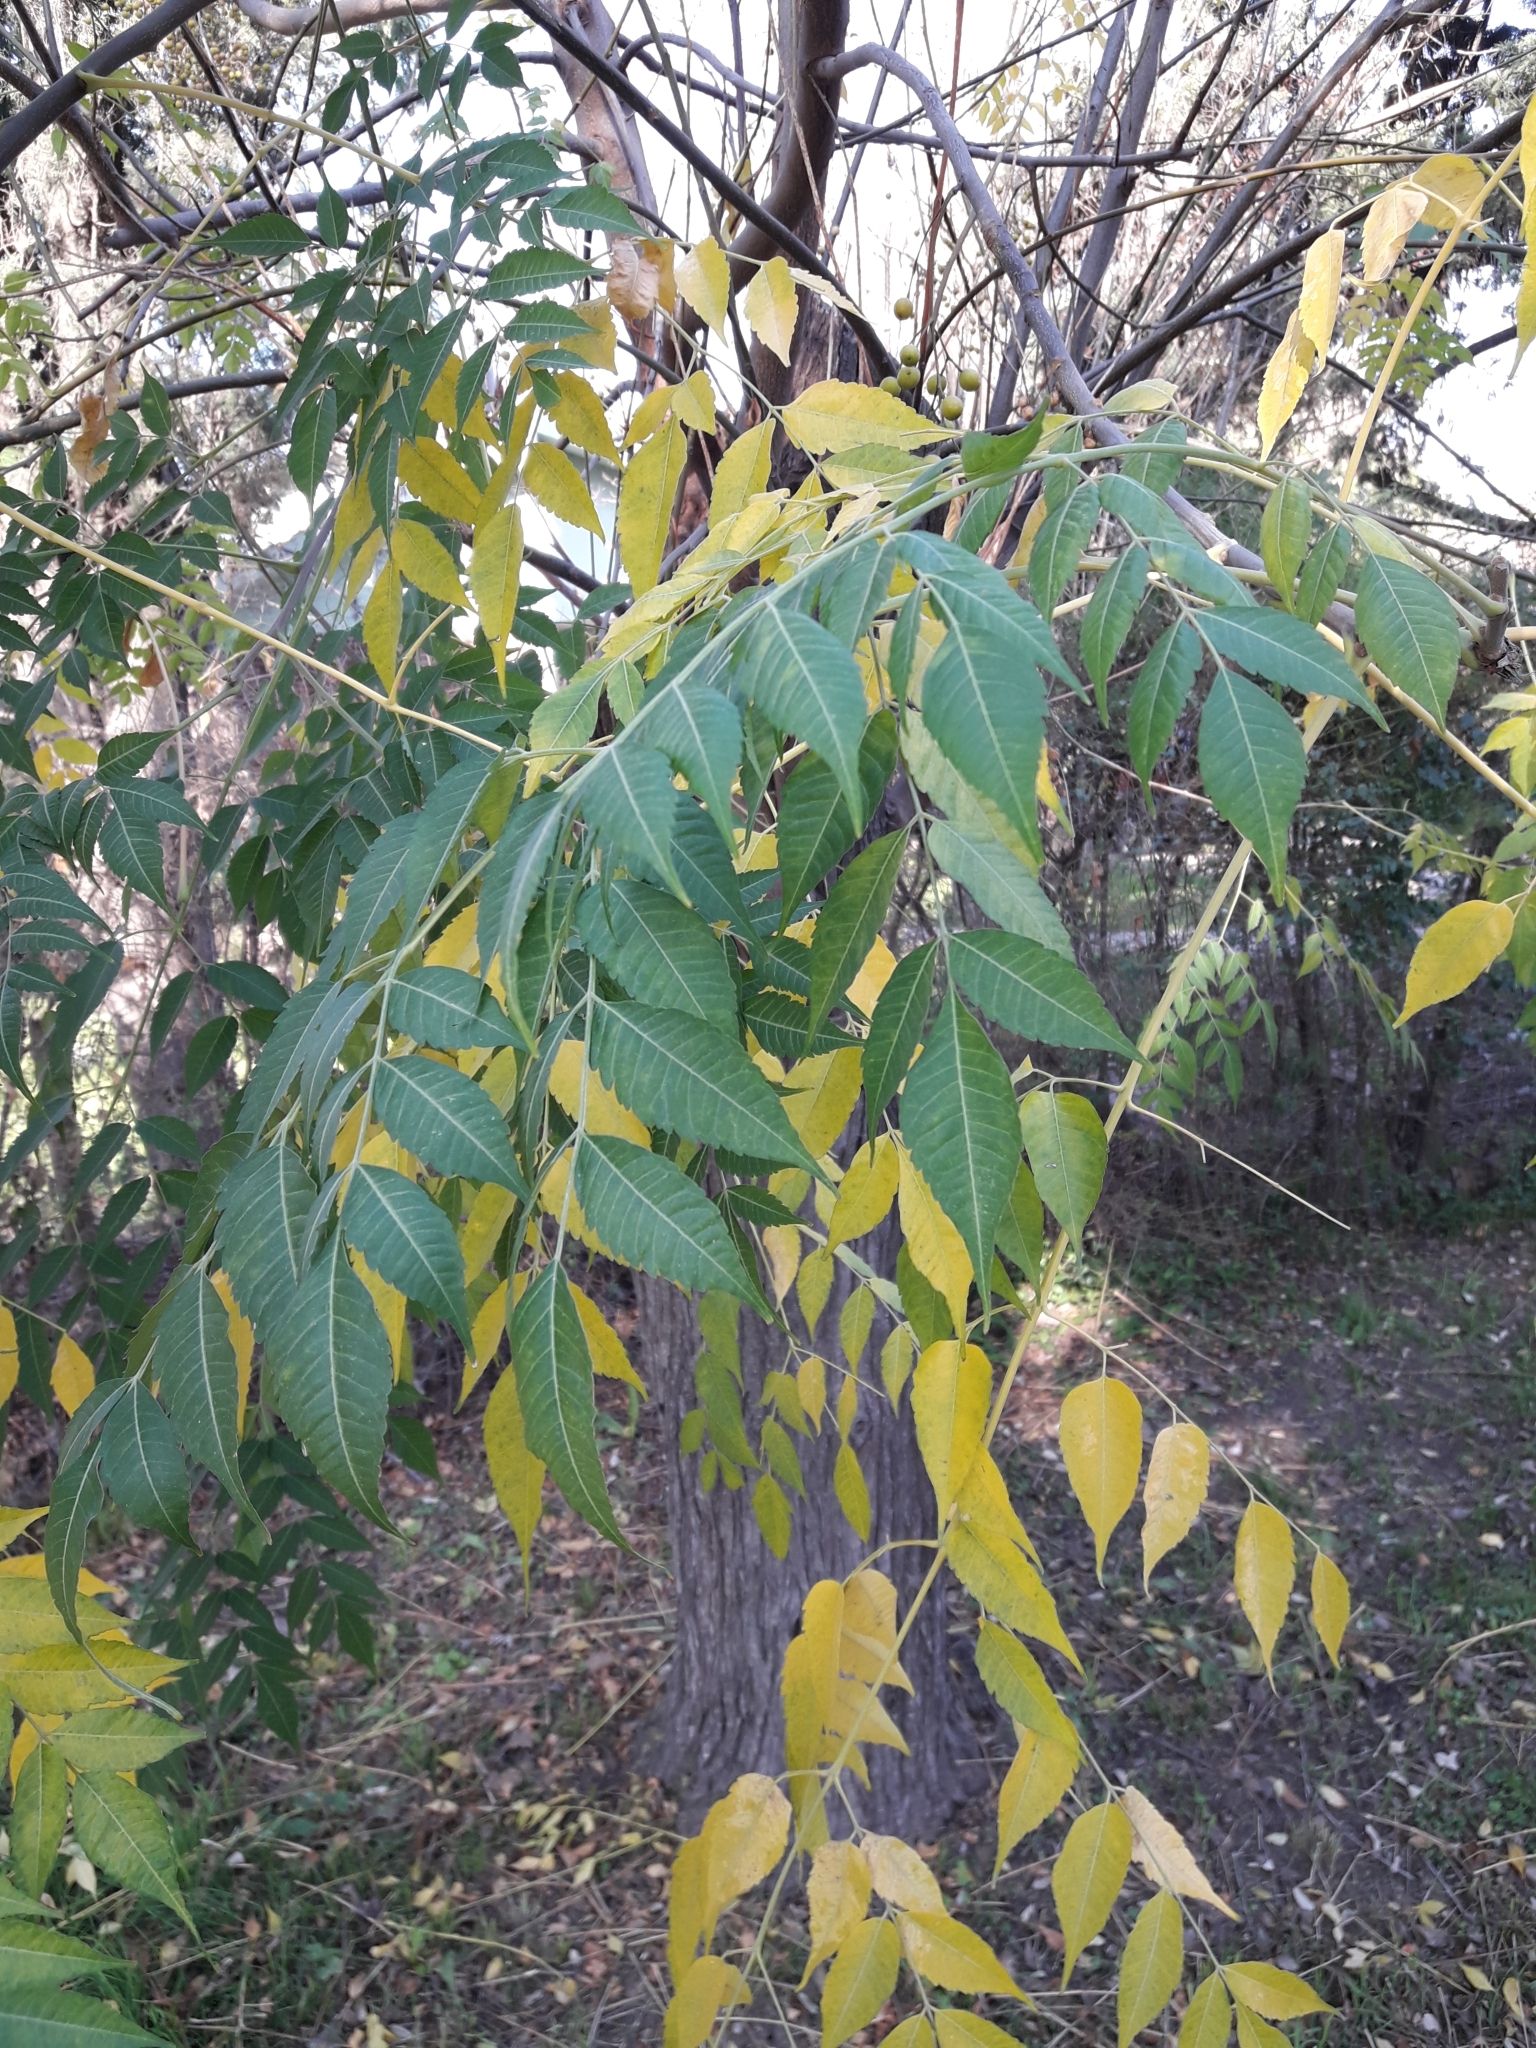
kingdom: Plantae
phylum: Tracheophyta
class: Magnoliopsida
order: Sapindales
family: Meliaceae
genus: Melia
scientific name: Melia azedarach
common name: Chinaberrytree
